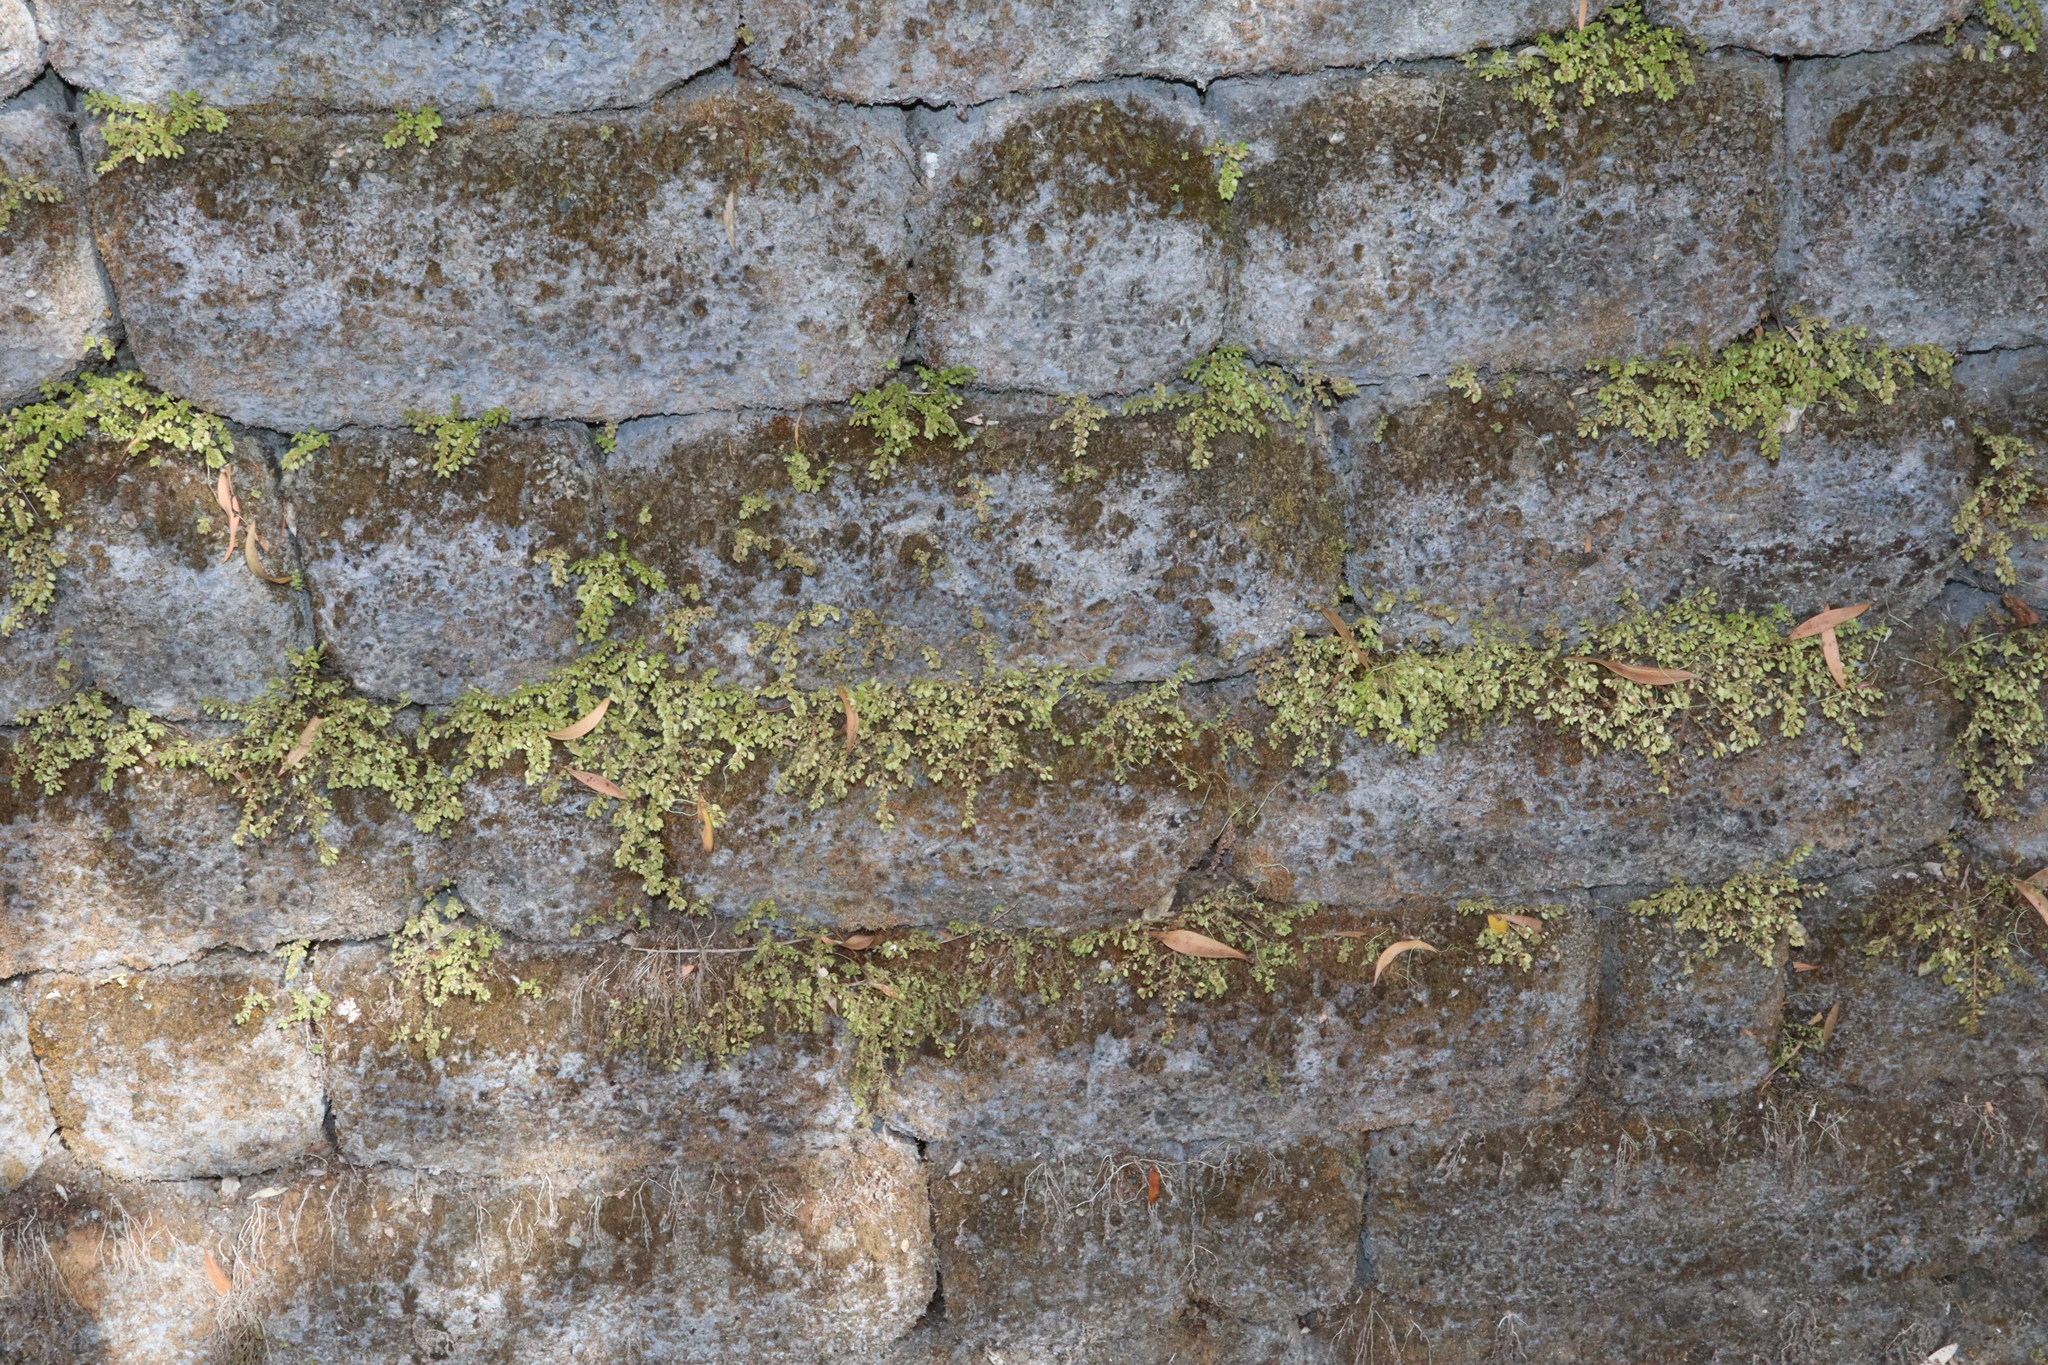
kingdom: Plantae
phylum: Tracheophyta
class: Magnoliopsida
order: Rosales
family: Urticaceae
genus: Pilea
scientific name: Pilea microphylla
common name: Artillery-plant
